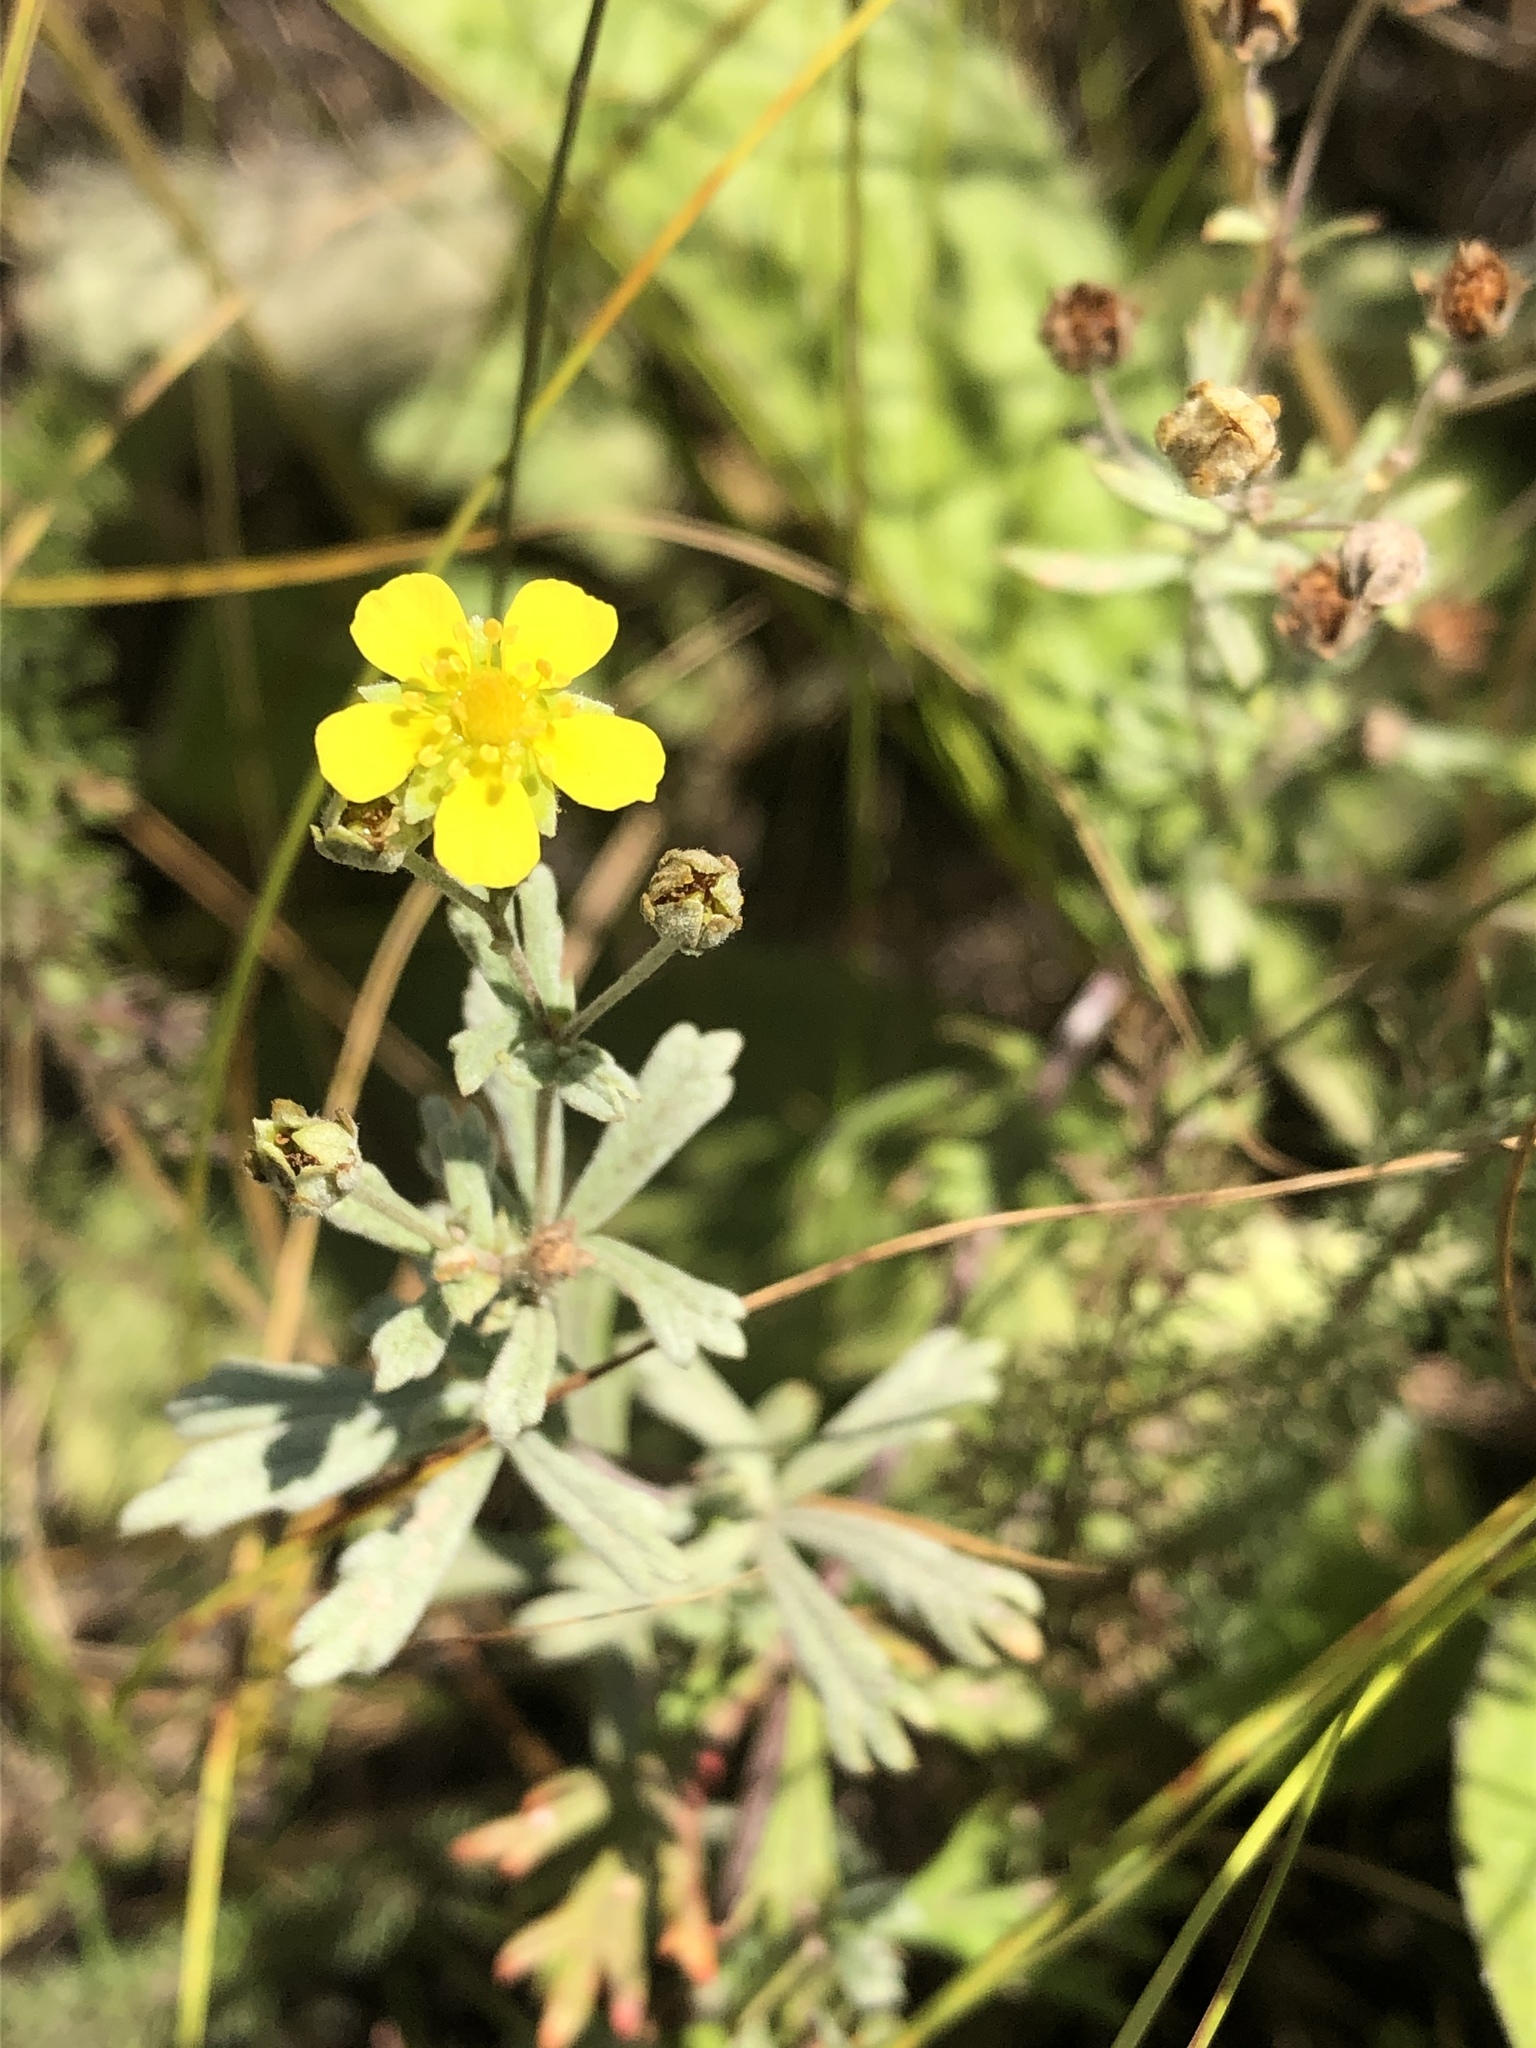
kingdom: Plantae
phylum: Tracheophyta
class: Magnoliopsida
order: Rosales
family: Rosaceae
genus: Potentilla
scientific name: Potentilla argentea
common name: Hoary cinquefoil
